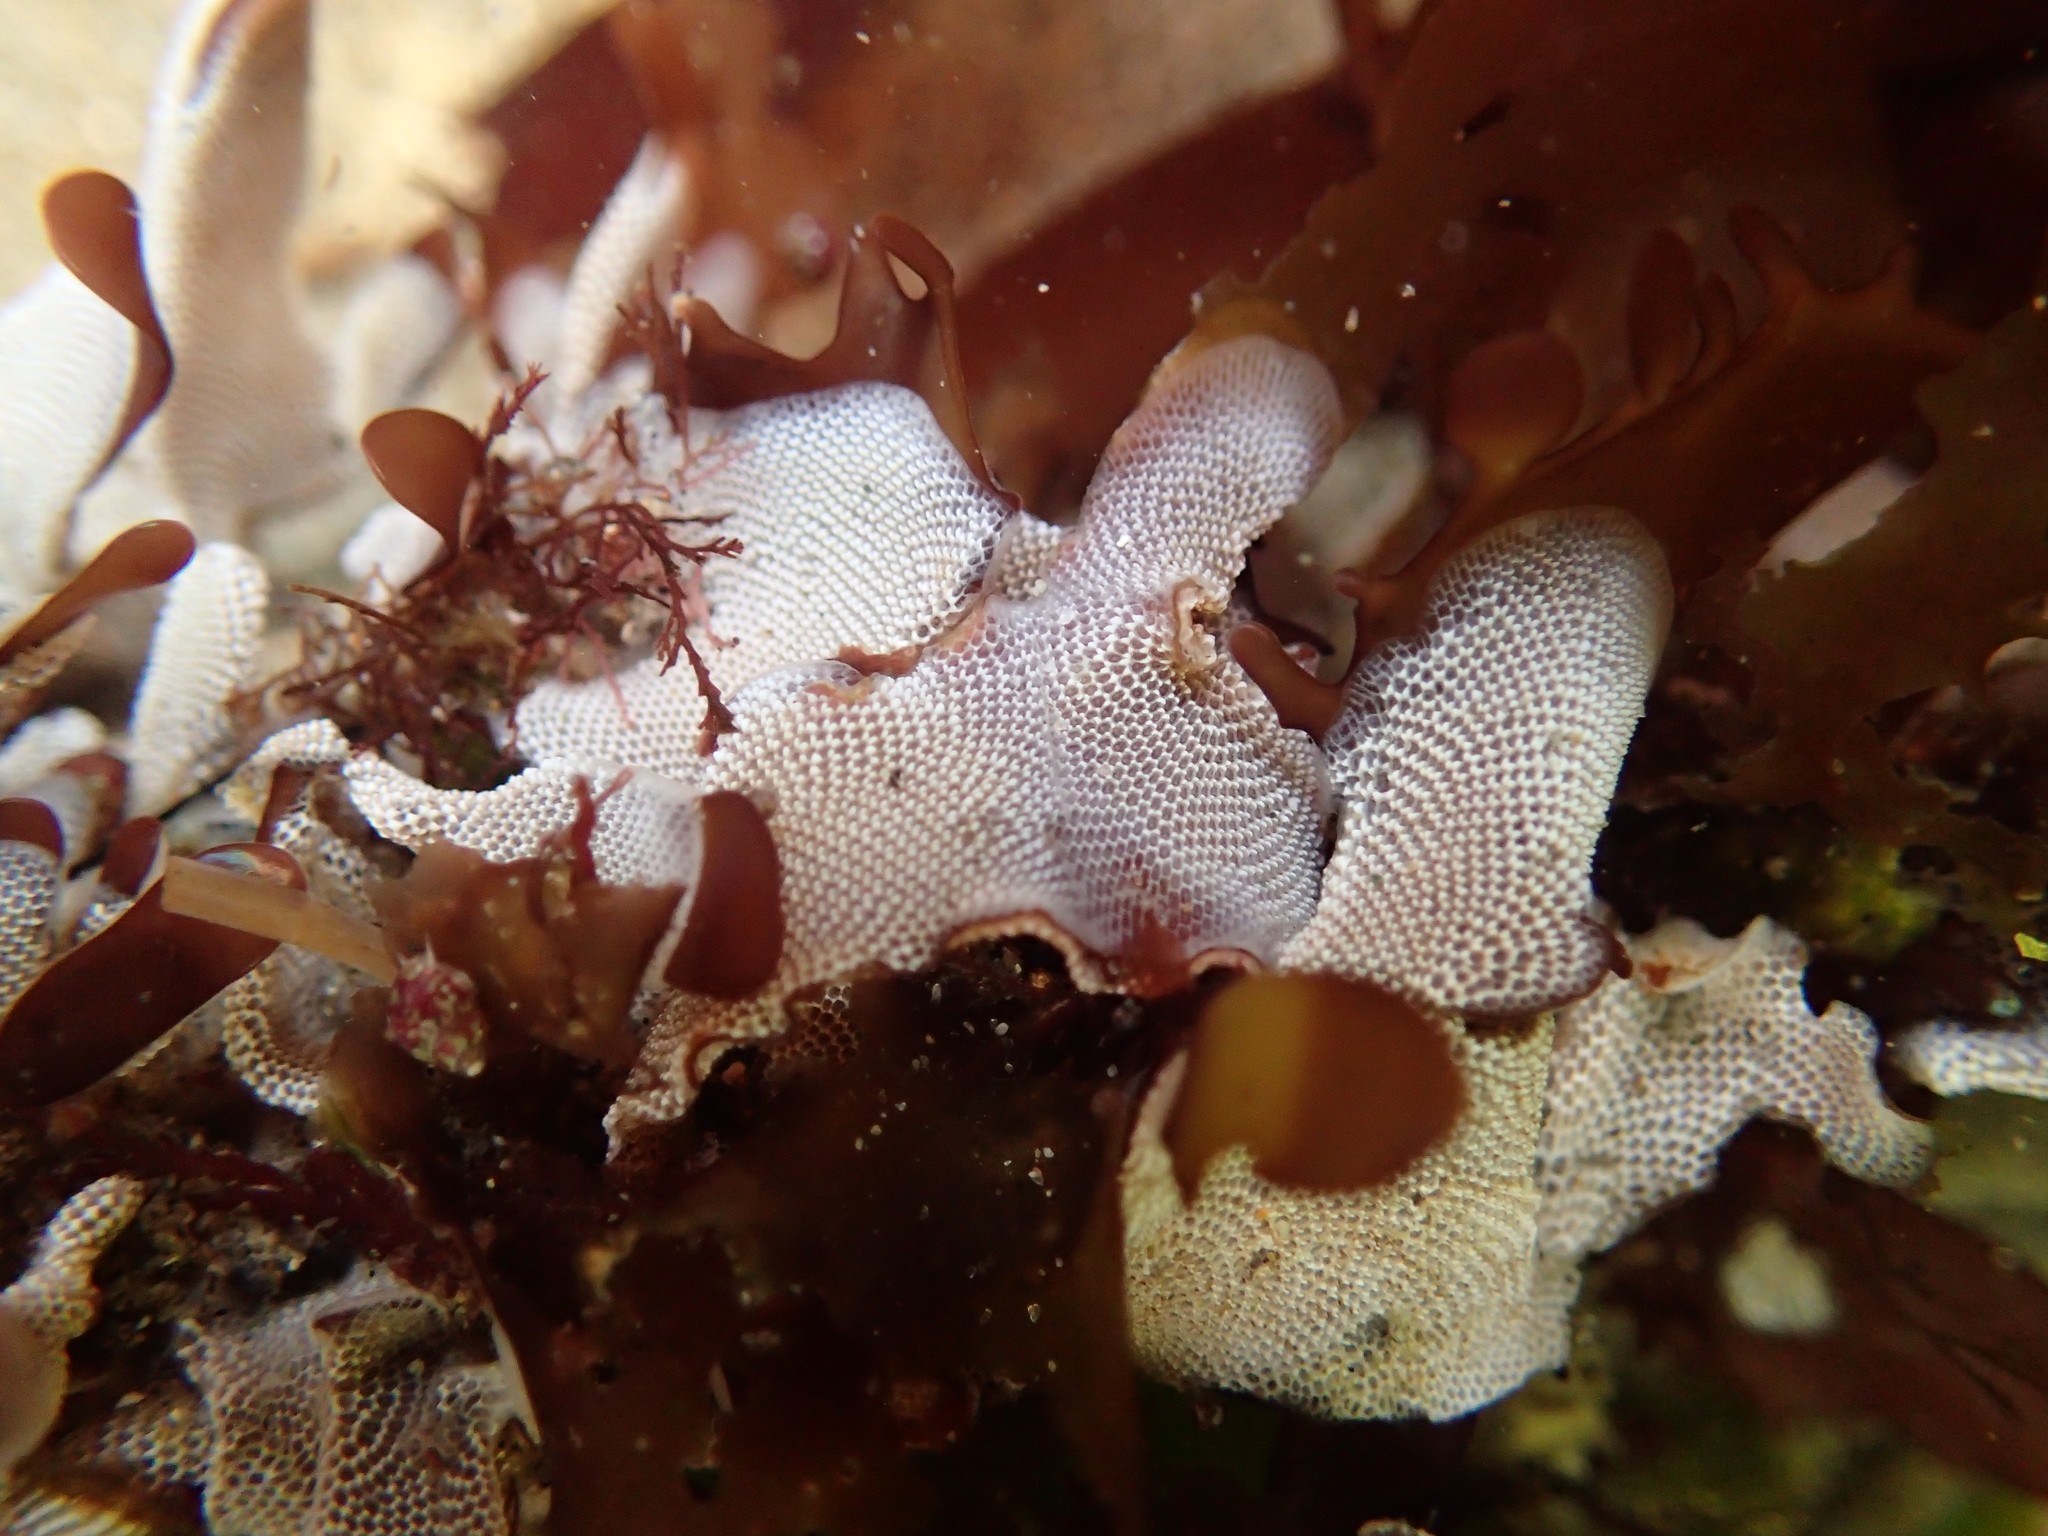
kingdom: Animalia
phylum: Bryozoa
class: Gymnolaemata
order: Cheilostomatida
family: Membraniporidae
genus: Membranipora
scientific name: Membranipora membranacea
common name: Sea mat
